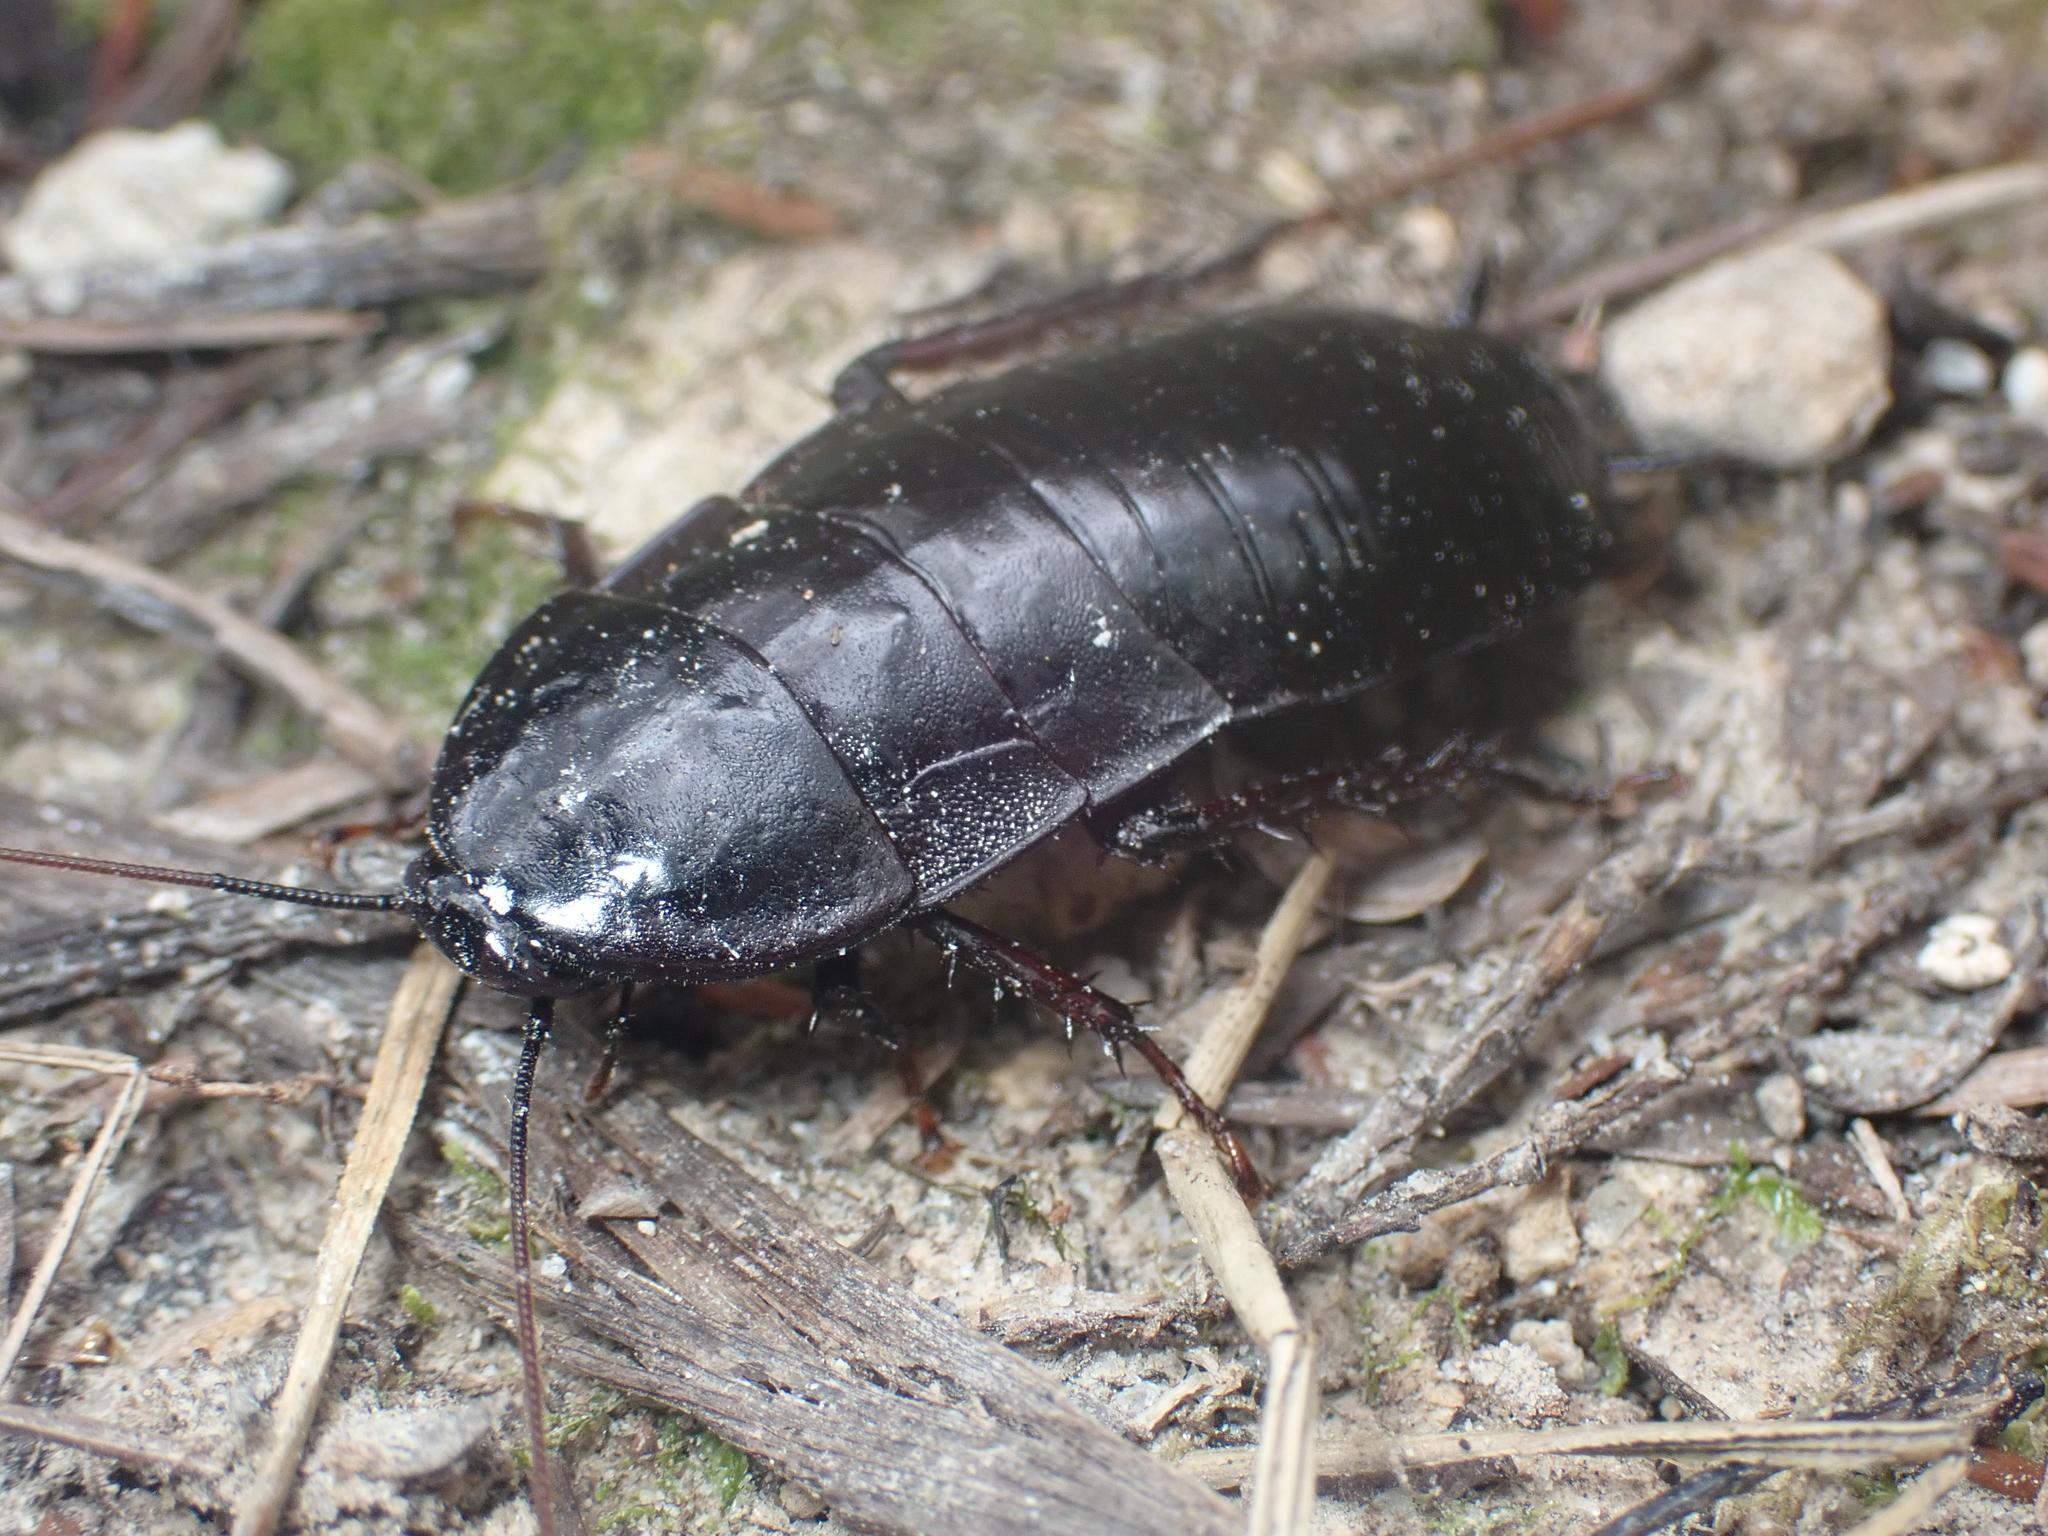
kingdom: Animalia
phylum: Arthropoda
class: Insecta
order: Blattodea
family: Blattidae
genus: Maoriblatta
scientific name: Maoriblatta novaeseelandiae
